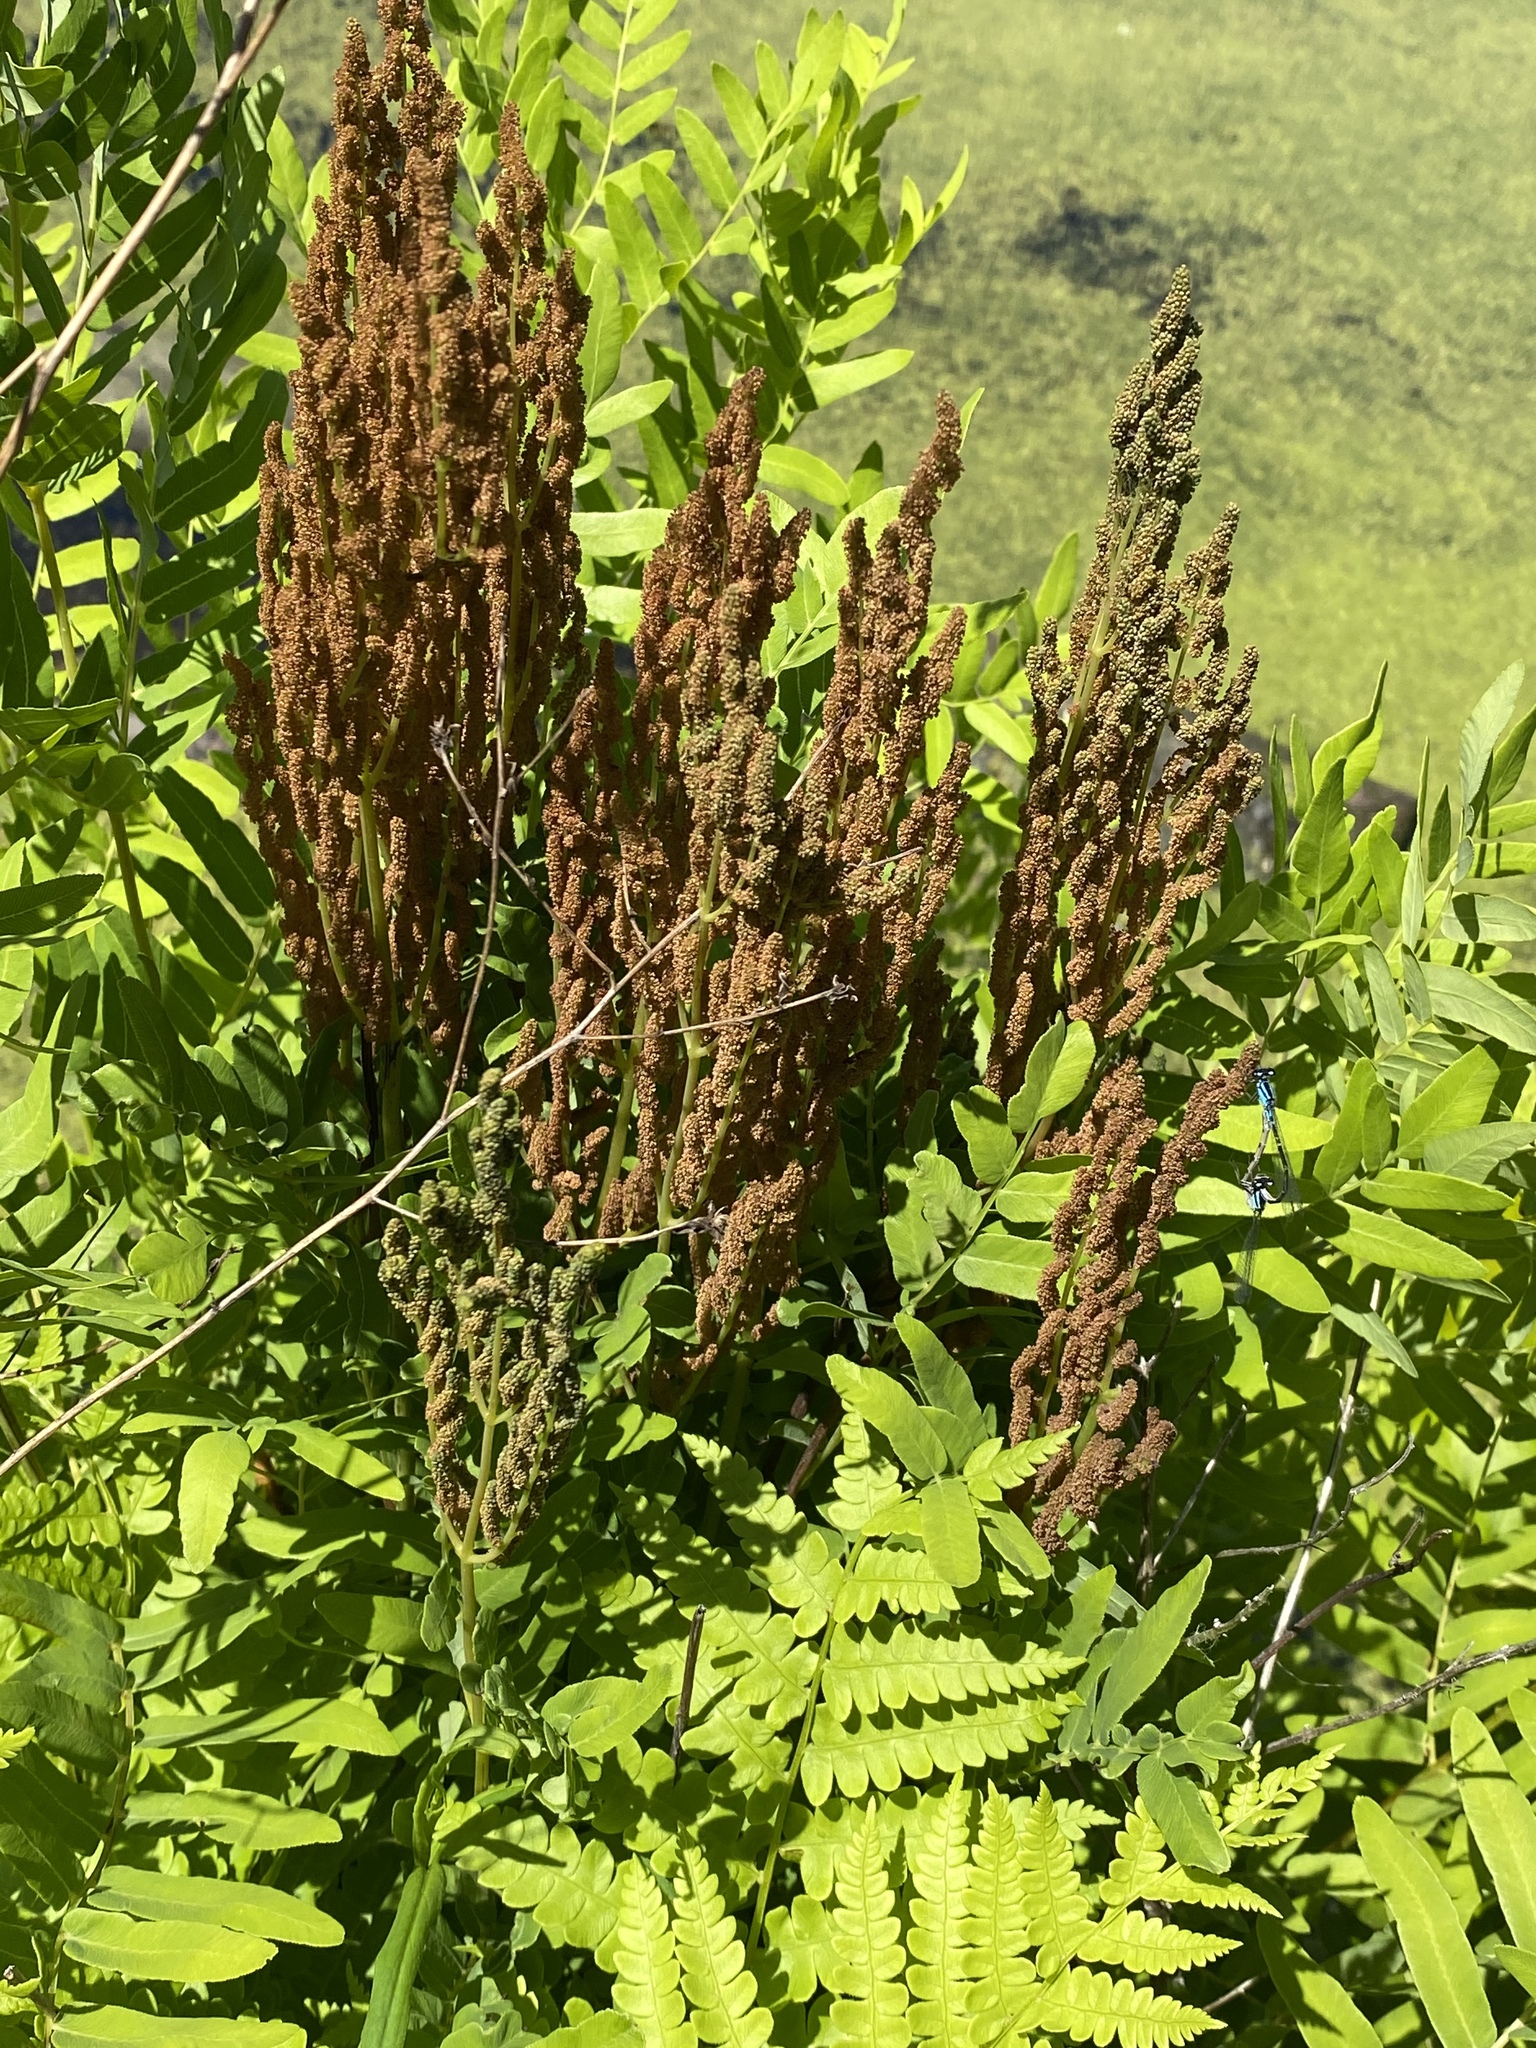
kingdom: Plantae
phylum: Tracheophyta
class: Polypodiopsida
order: Osmundales
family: Osmundaceae
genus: Osmunda
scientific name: Osmunda spectabilis
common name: American royal fern
